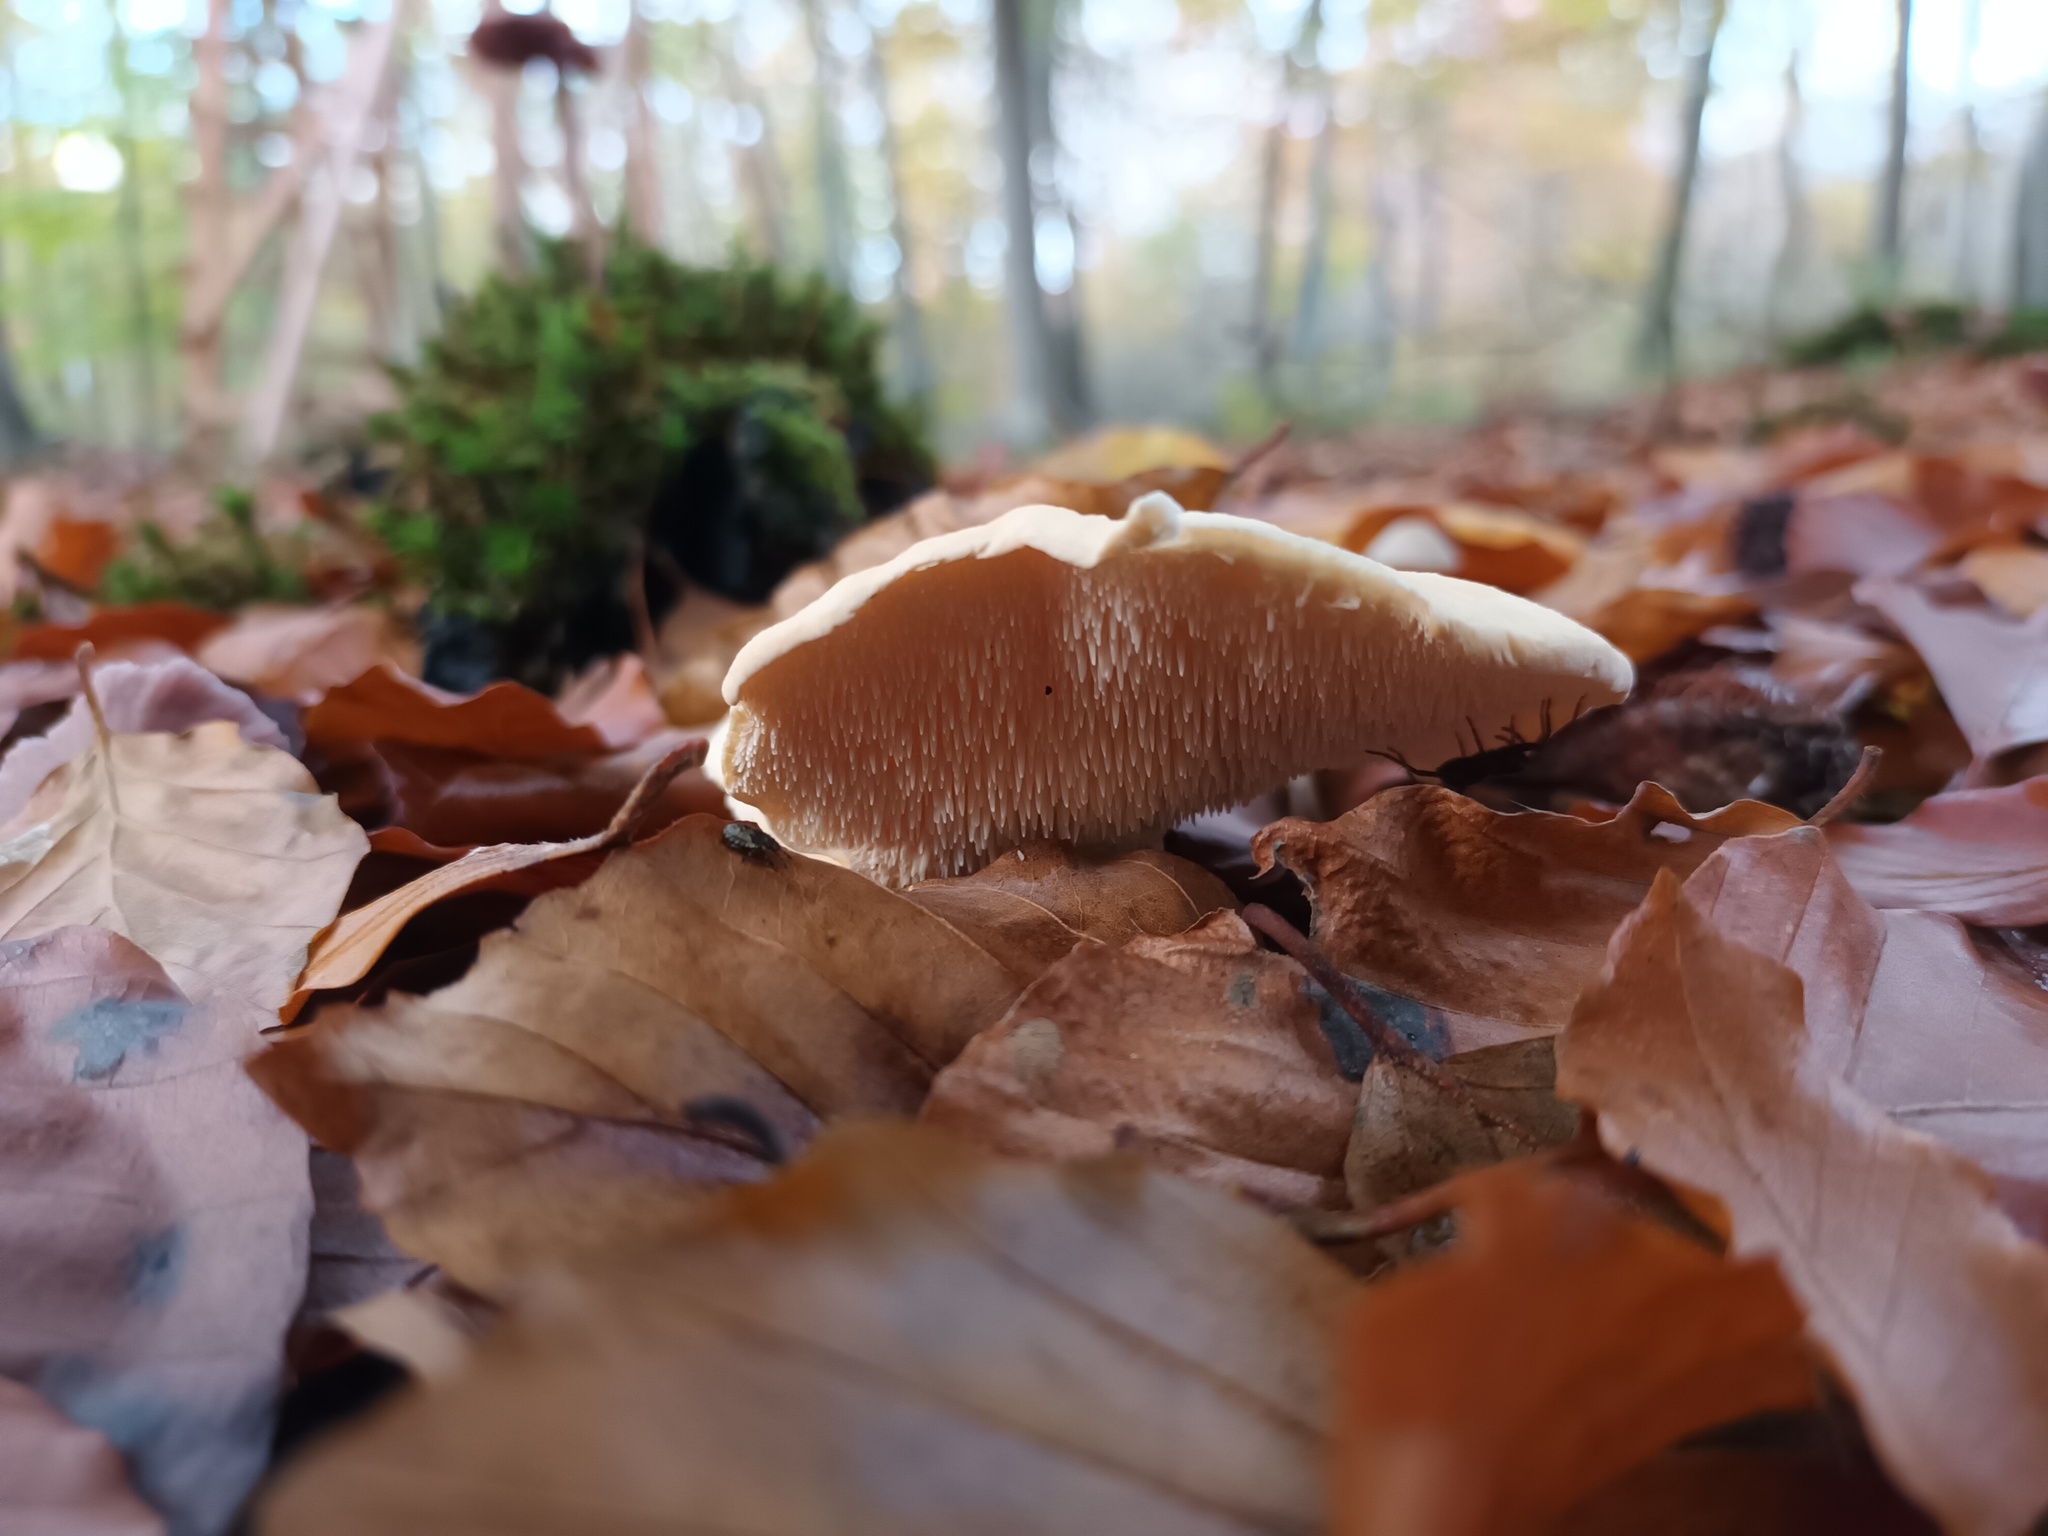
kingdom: Fungi
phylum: Basidiomycota
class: Agaricomycetes
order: Cantharellales
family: Hydnaceae
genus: Hydnum
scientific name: Hydnum repandum
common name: Wood hedgehog
